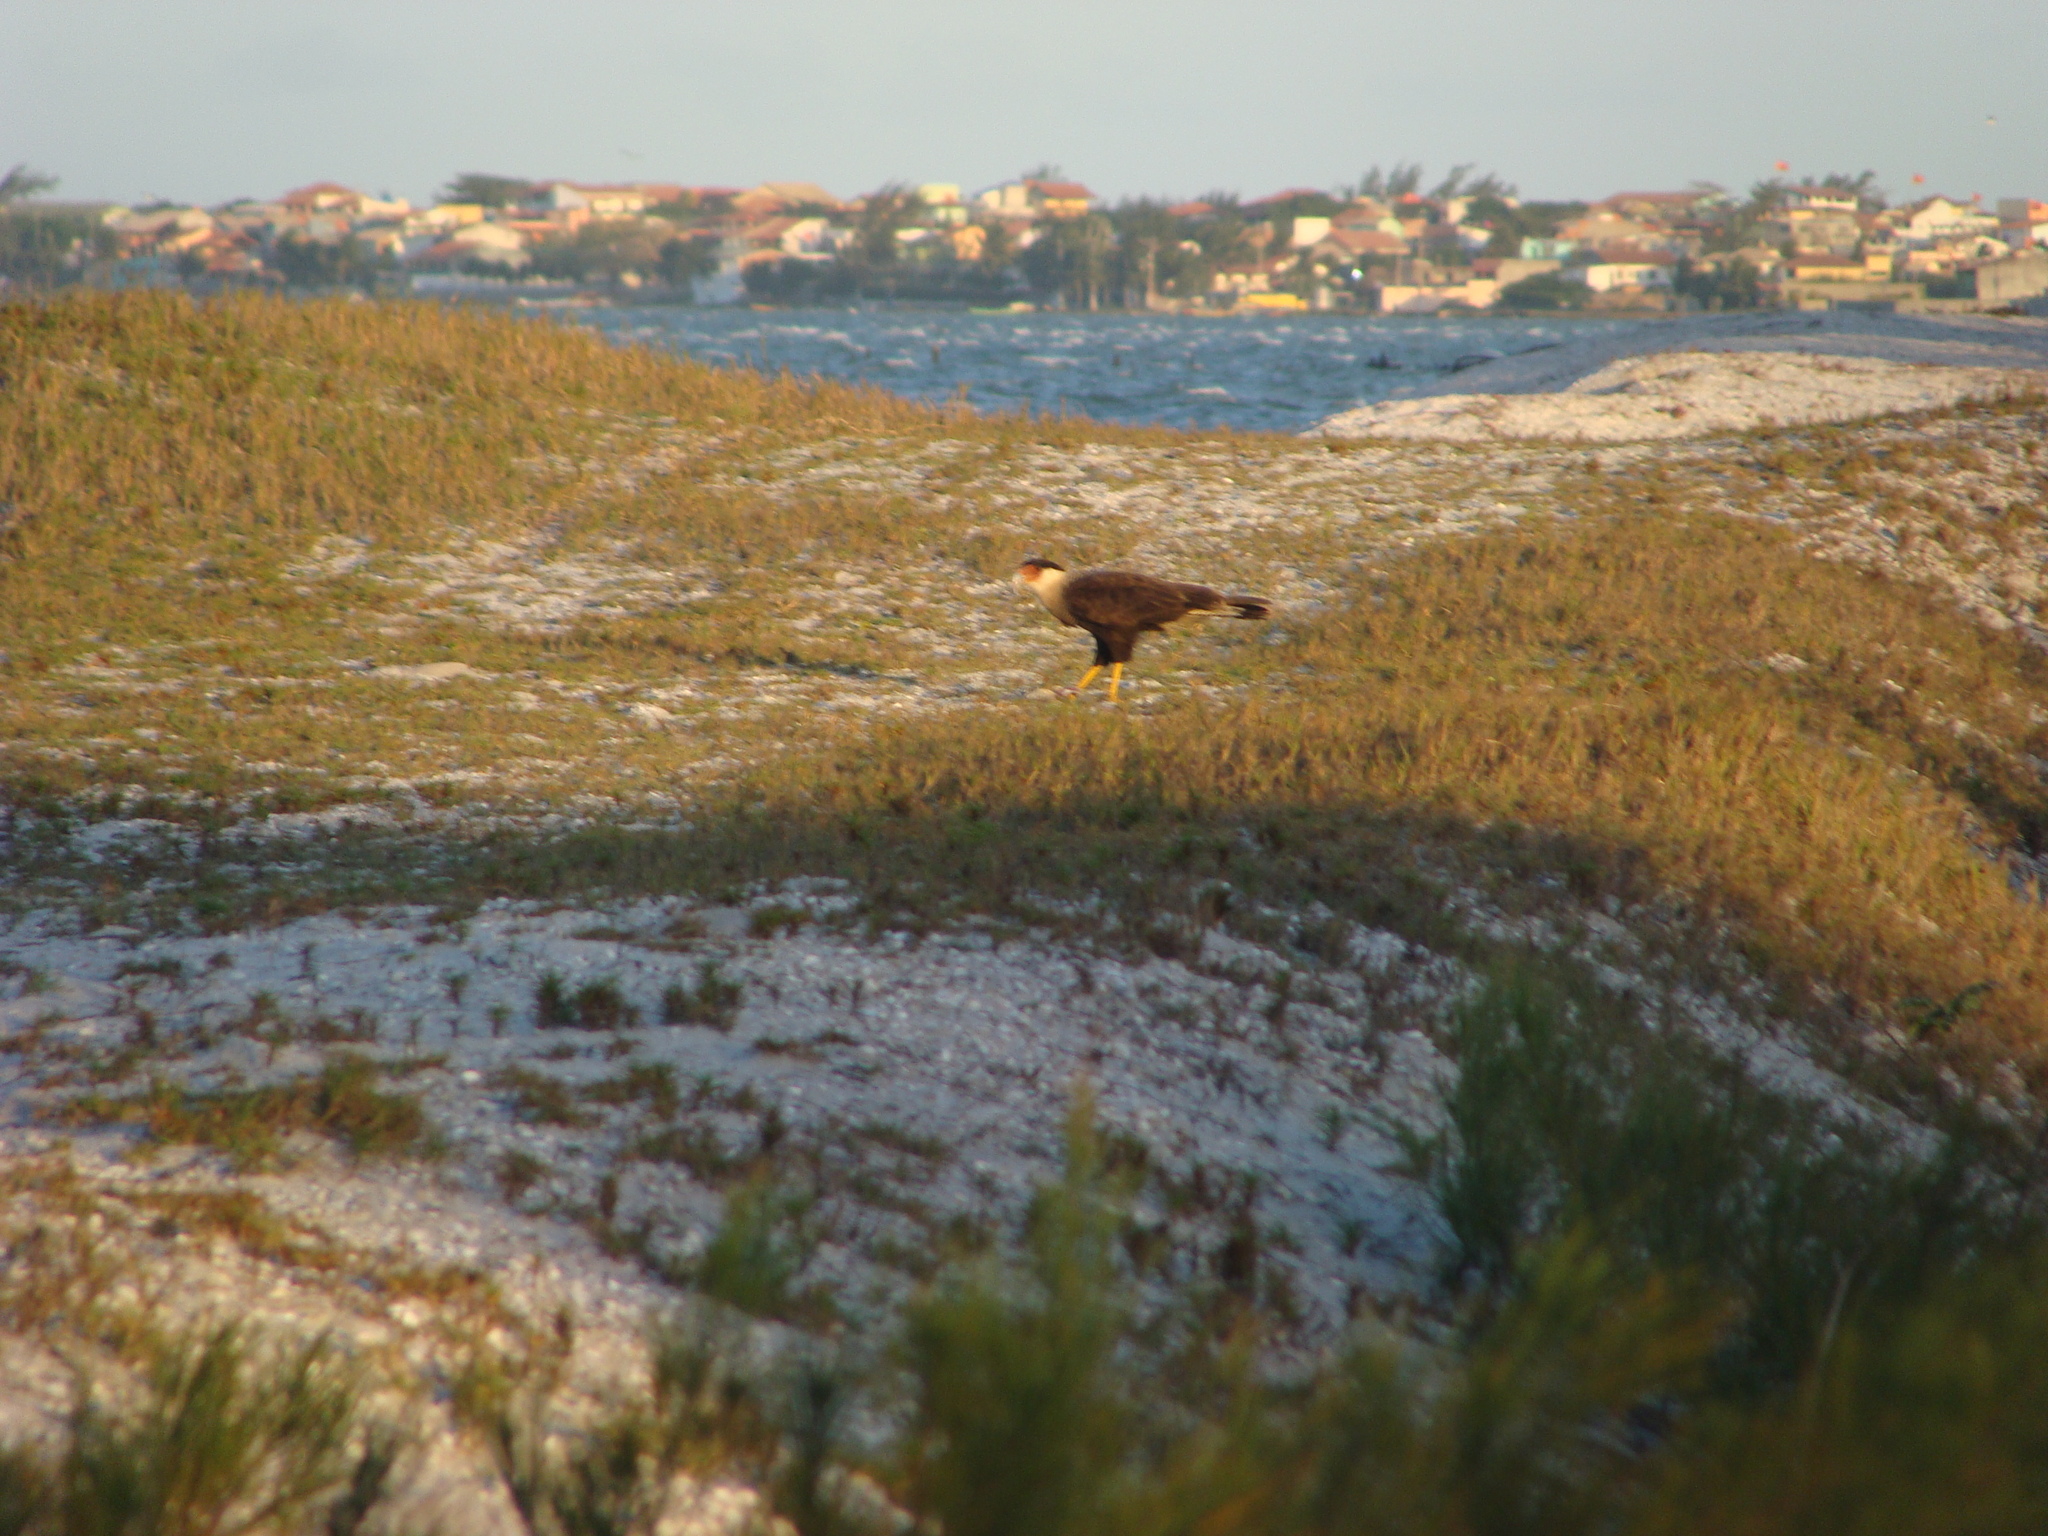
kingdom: Animalia
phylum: Chordata
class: Aves
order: Falconiformes
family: Falconidae
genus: Caracara
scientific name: Caracara plancus
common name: Southern caracara
